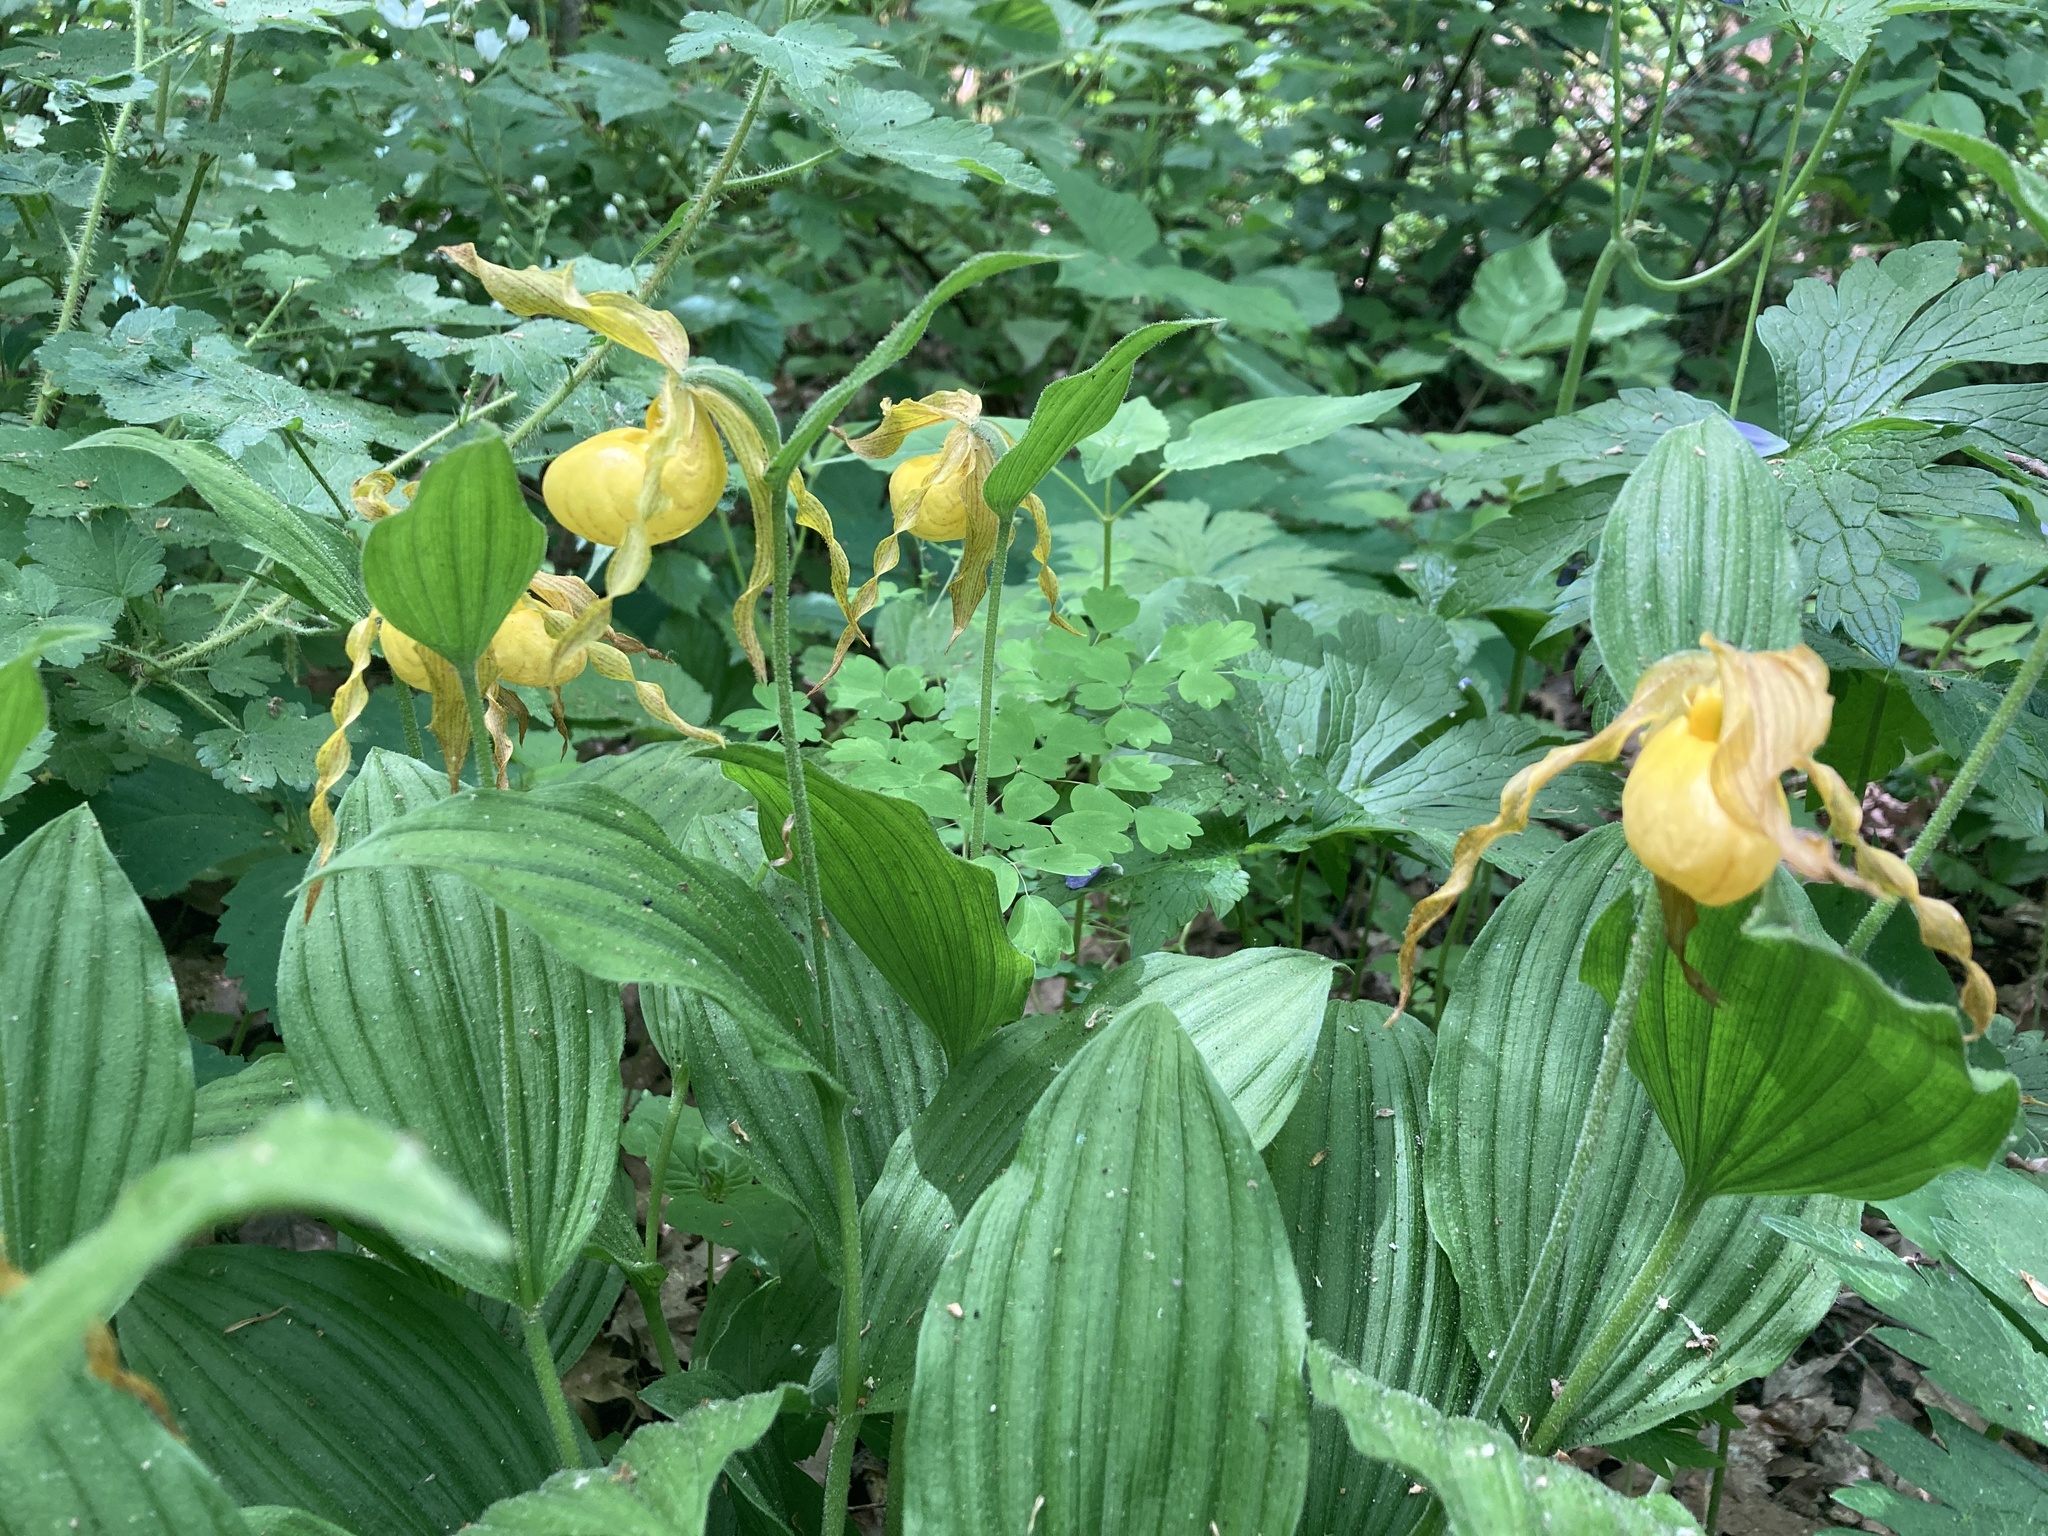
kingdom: Plantae
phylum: Tracheophyta
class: Liliopsida
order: Asparagales
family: Orchidaceae
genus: Cypripedium
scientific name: Cypripedium parviflorum
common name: American yellow lady's-slipper
